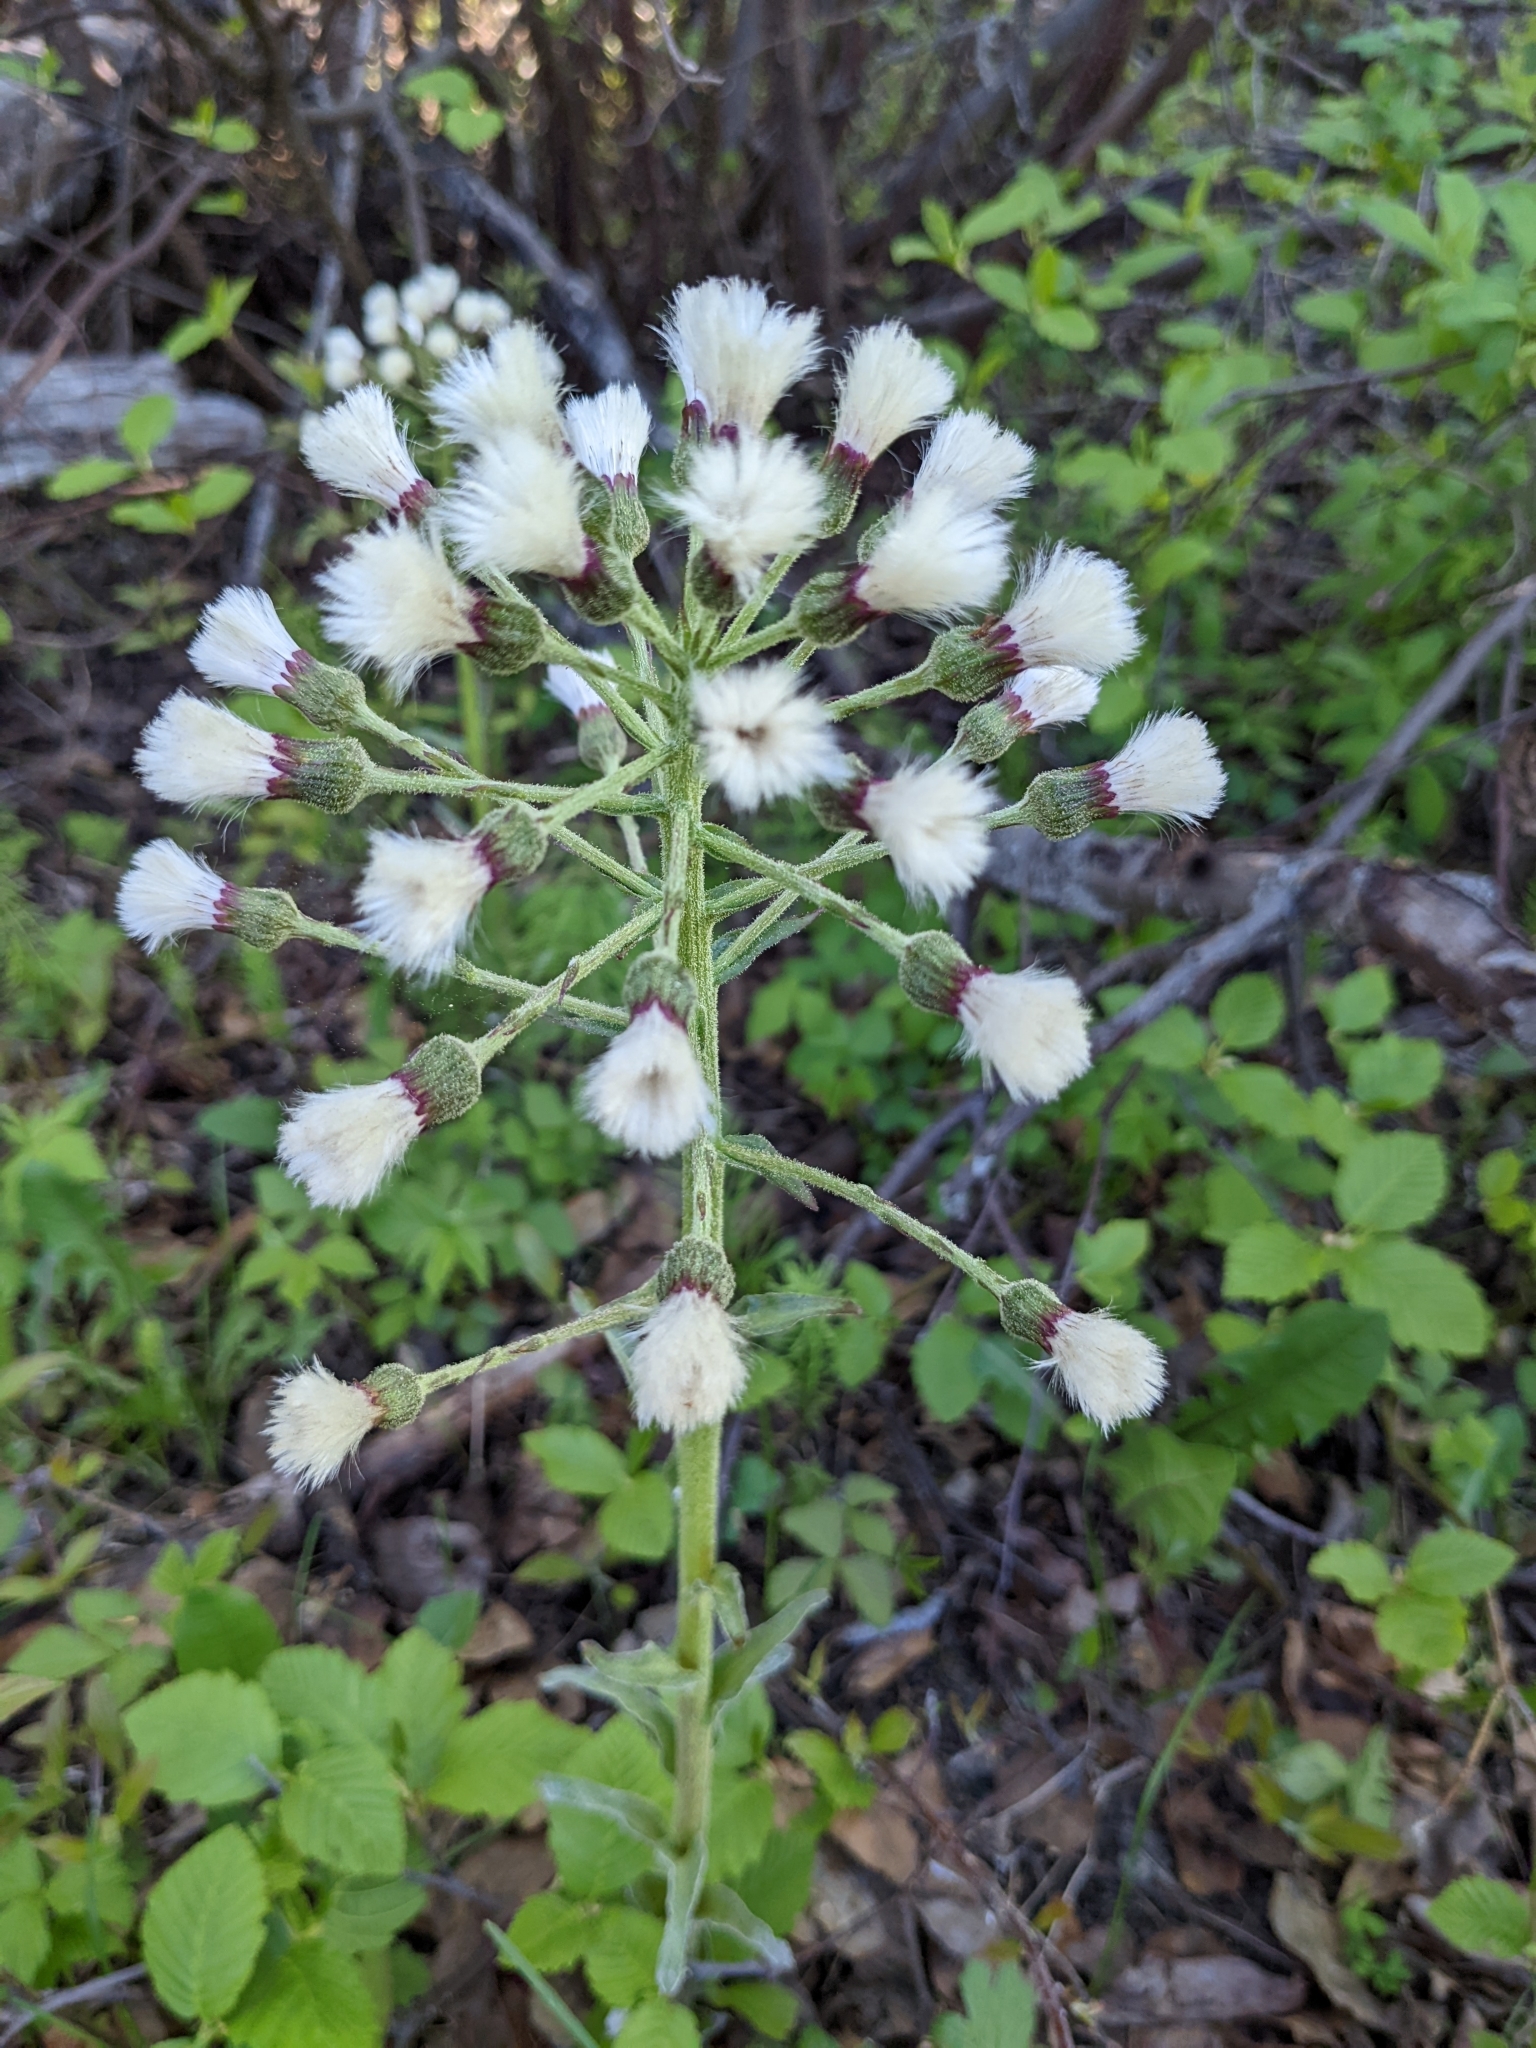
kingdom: Plantae
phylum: Tracheophyta
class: Magnoliopsida
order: Asterales
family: Asteraceae
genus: Petasites
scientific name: Petasites frigidus
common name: Arctic butterbur
